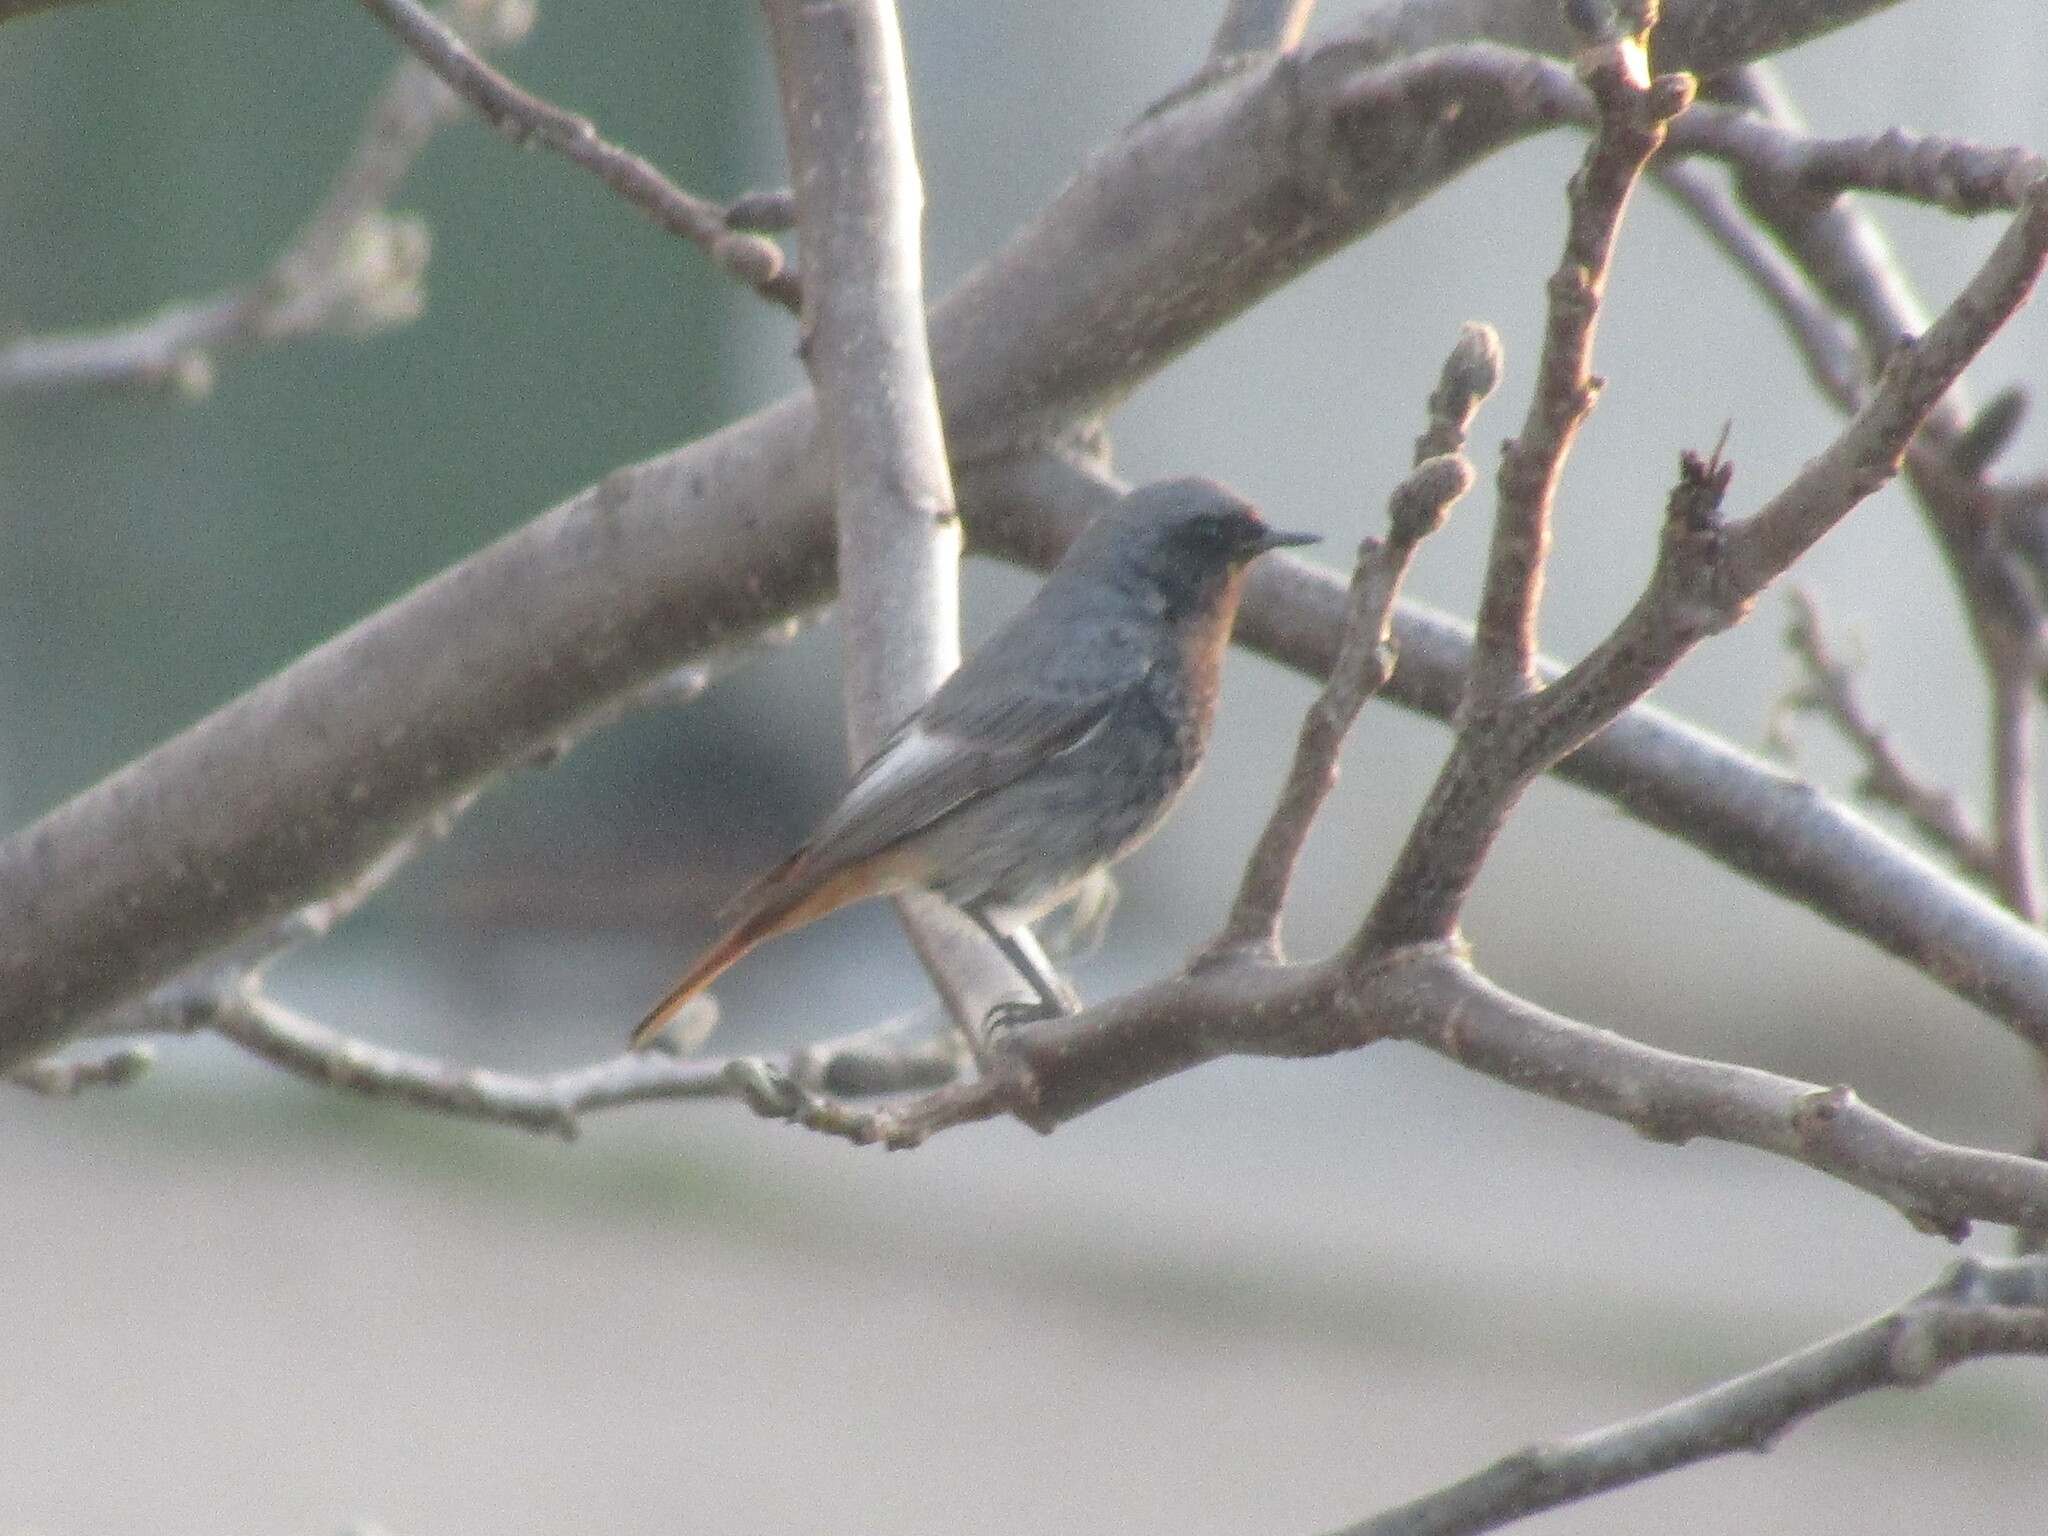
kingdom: Animalia
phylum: Chordata
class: Aves
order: Passeriformes
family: Muscicapidae
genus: Phoenicurus
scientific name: Phoenicurus ochruros
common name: Black redstart
